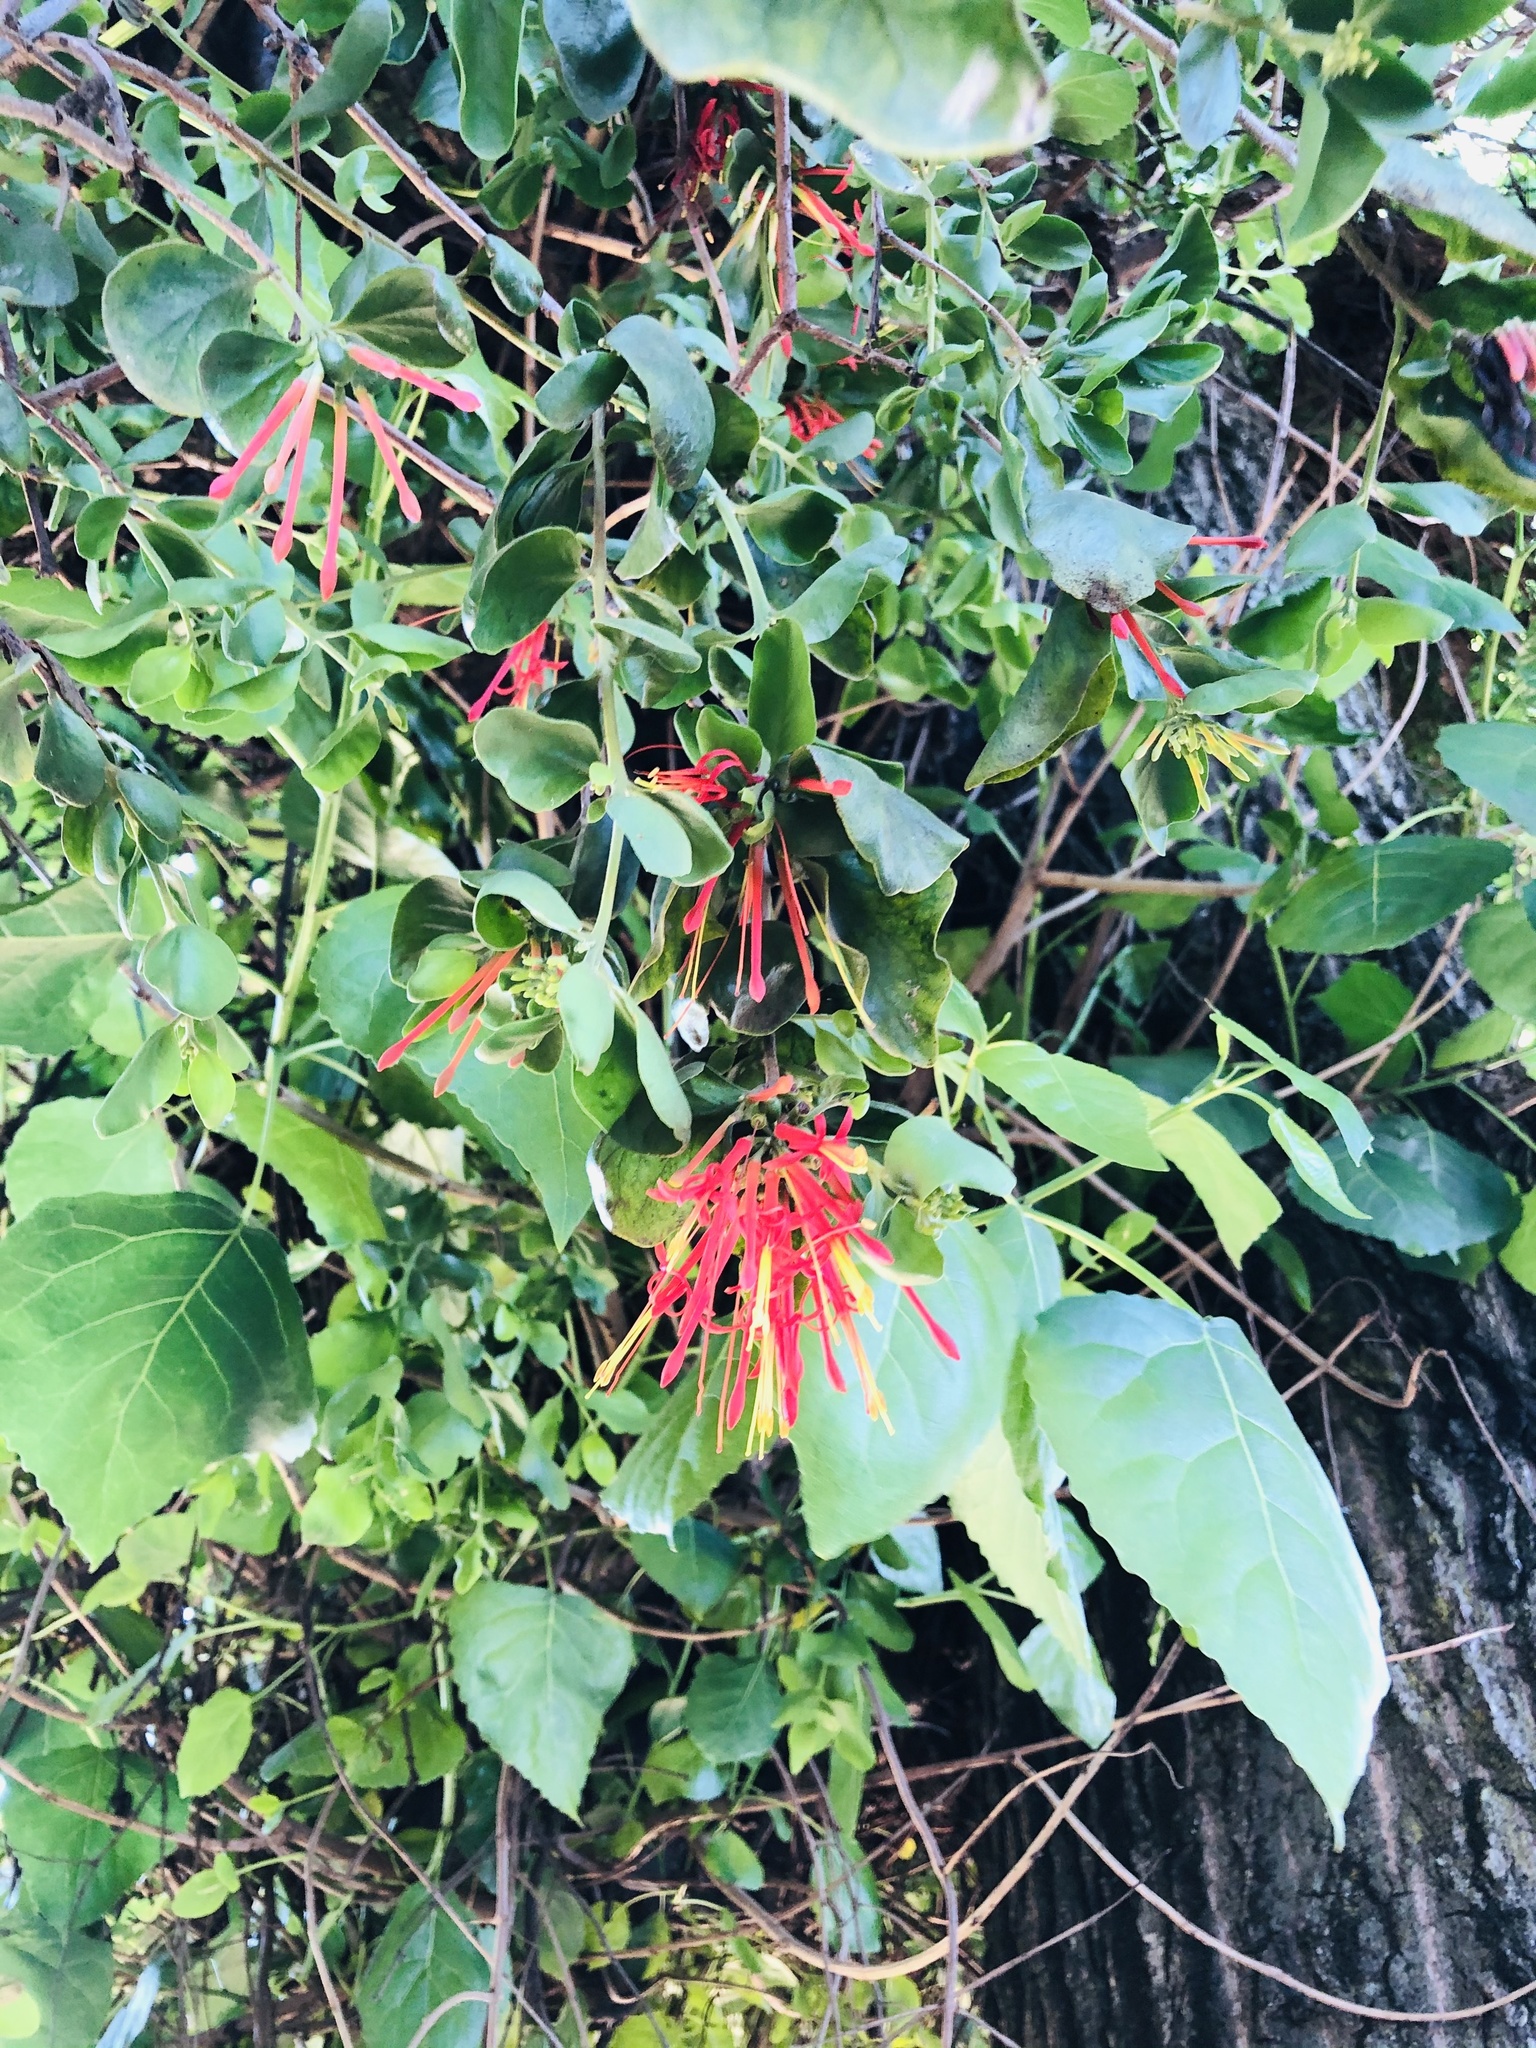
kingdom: Plantae
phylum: Tracheophyta
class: Magnoliopsida
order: Santalales
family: Loranthaceae
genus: Tristerix
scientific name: Tristerix corymbosus
